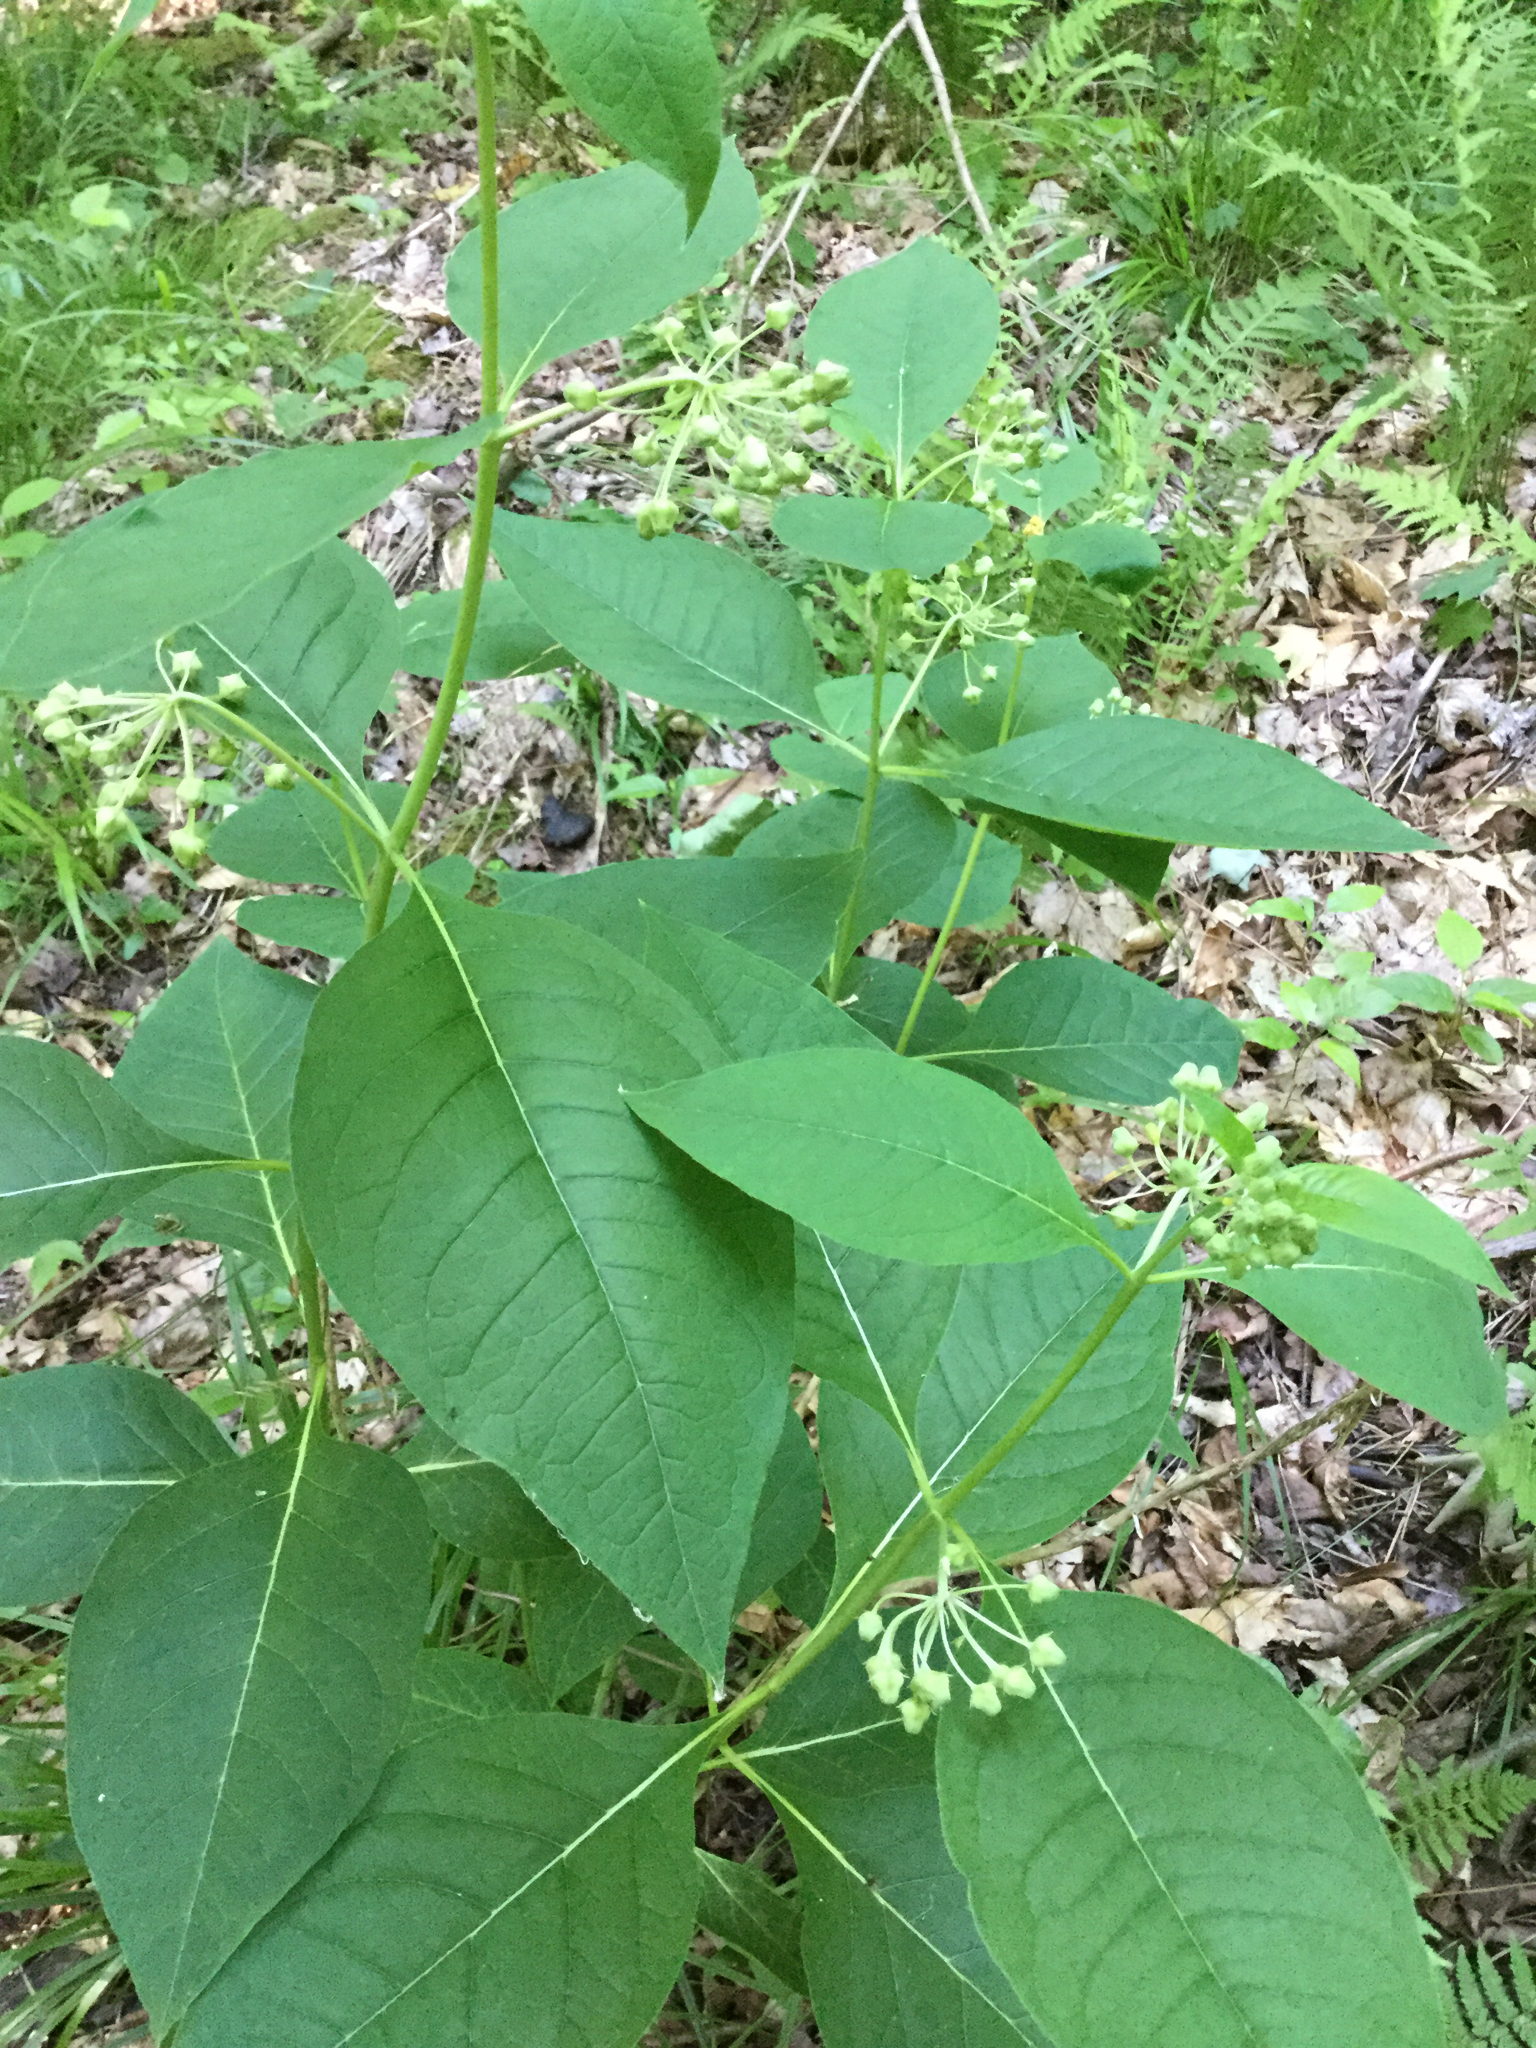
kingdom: Plantae
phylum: Tracheophyta
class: Magnoliopsida
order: Gentianales
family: Apocynaceae
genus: Asclepias
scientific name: Asclepias exaltata
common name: Poke milkweed
